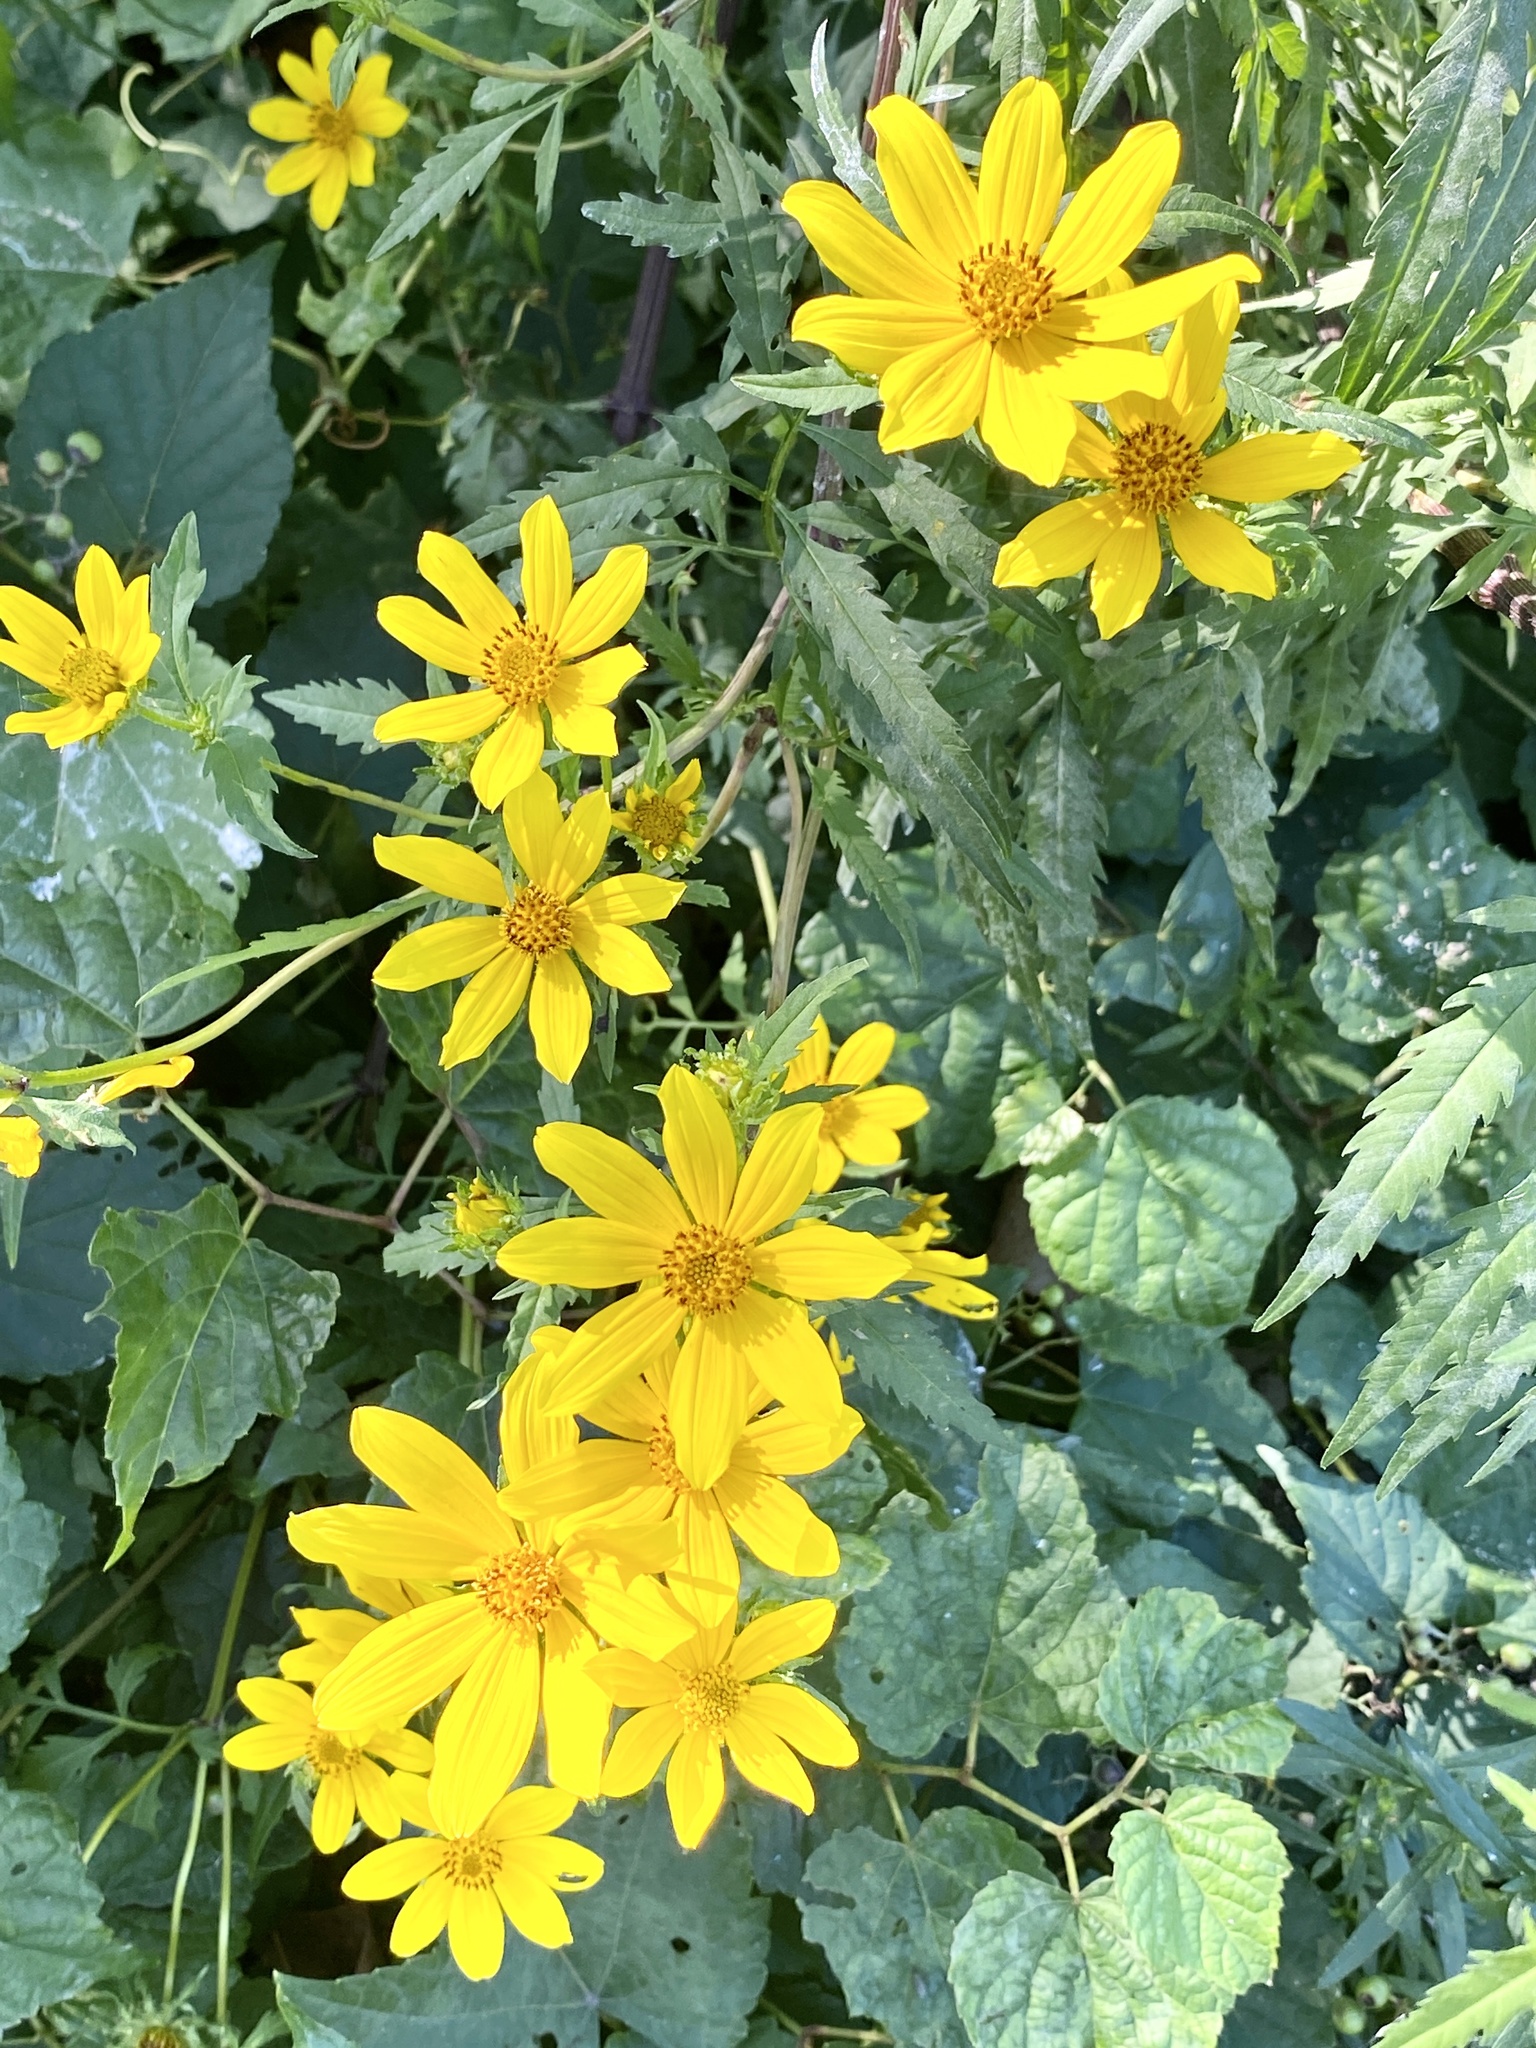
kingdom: Plantae
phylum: Tracheophyta
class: Magnoliopsida
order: Asterales
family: Asteraceae
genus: Bidens
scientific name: Bidens polylepis
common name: Awnless beggarticks
